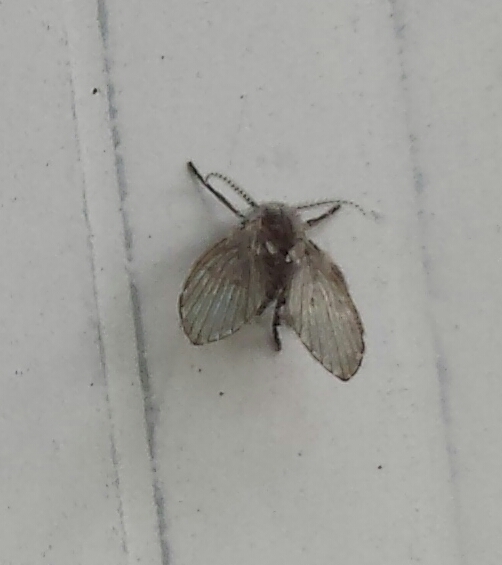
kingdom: Animalia
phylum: Arthropoda
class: Insecta
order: Diptera
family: Psychodidae
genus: Clogmia
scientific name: Clogmia albipunctatus
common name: White-spotted moth fly
